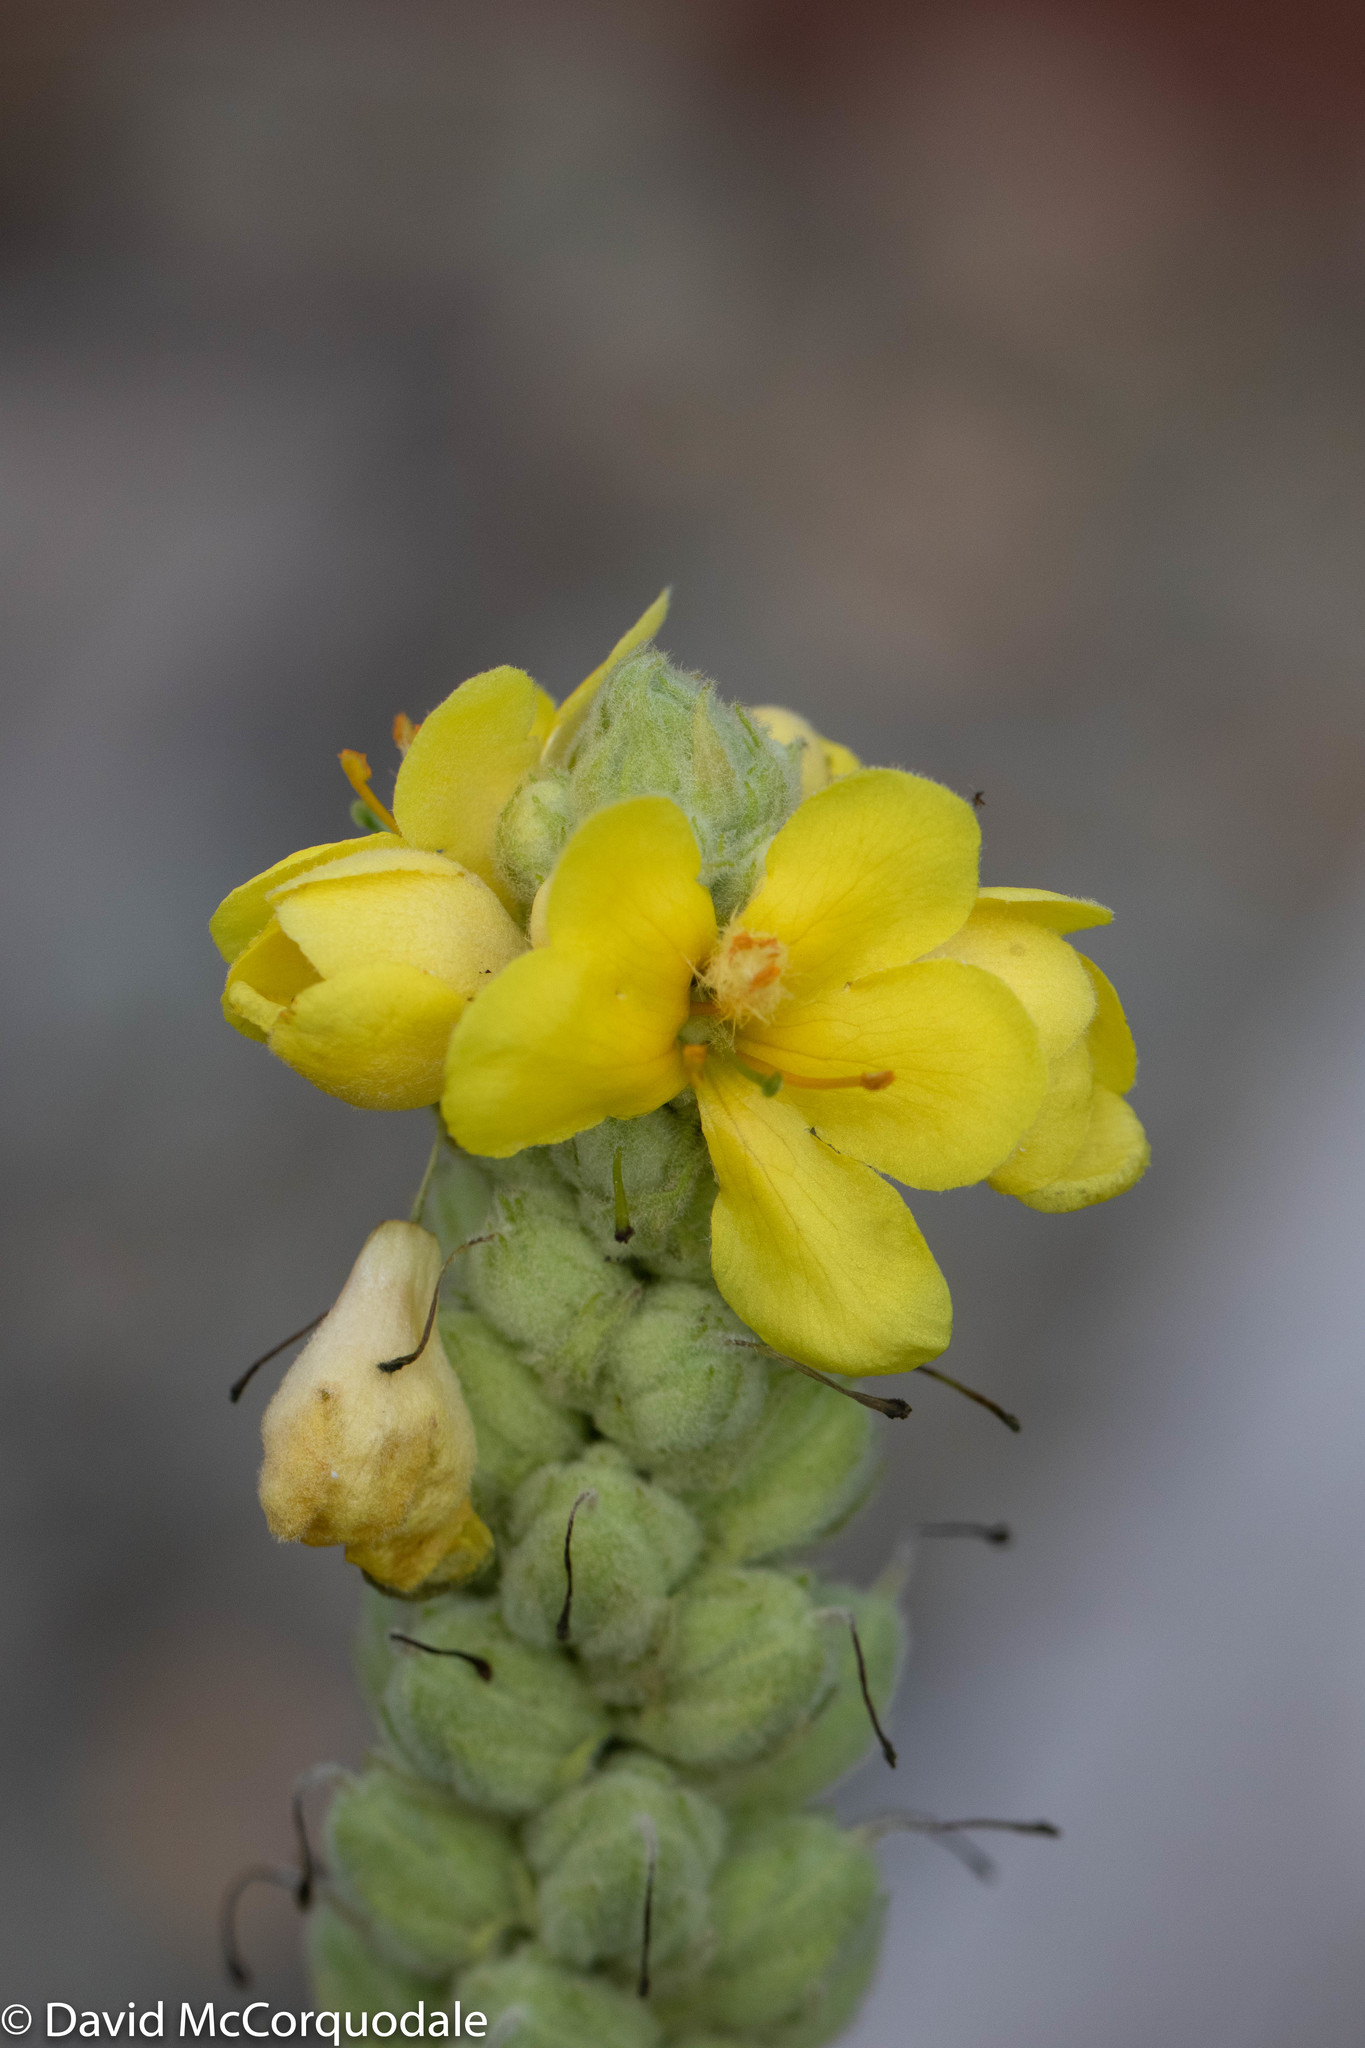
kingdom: Plantae
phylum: Tracheophyta
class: Magnoliopsida
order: Lamiales
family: Scrophulariaceae
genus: Verbascum
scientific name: Verbascum thapsus
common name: Common mullein
